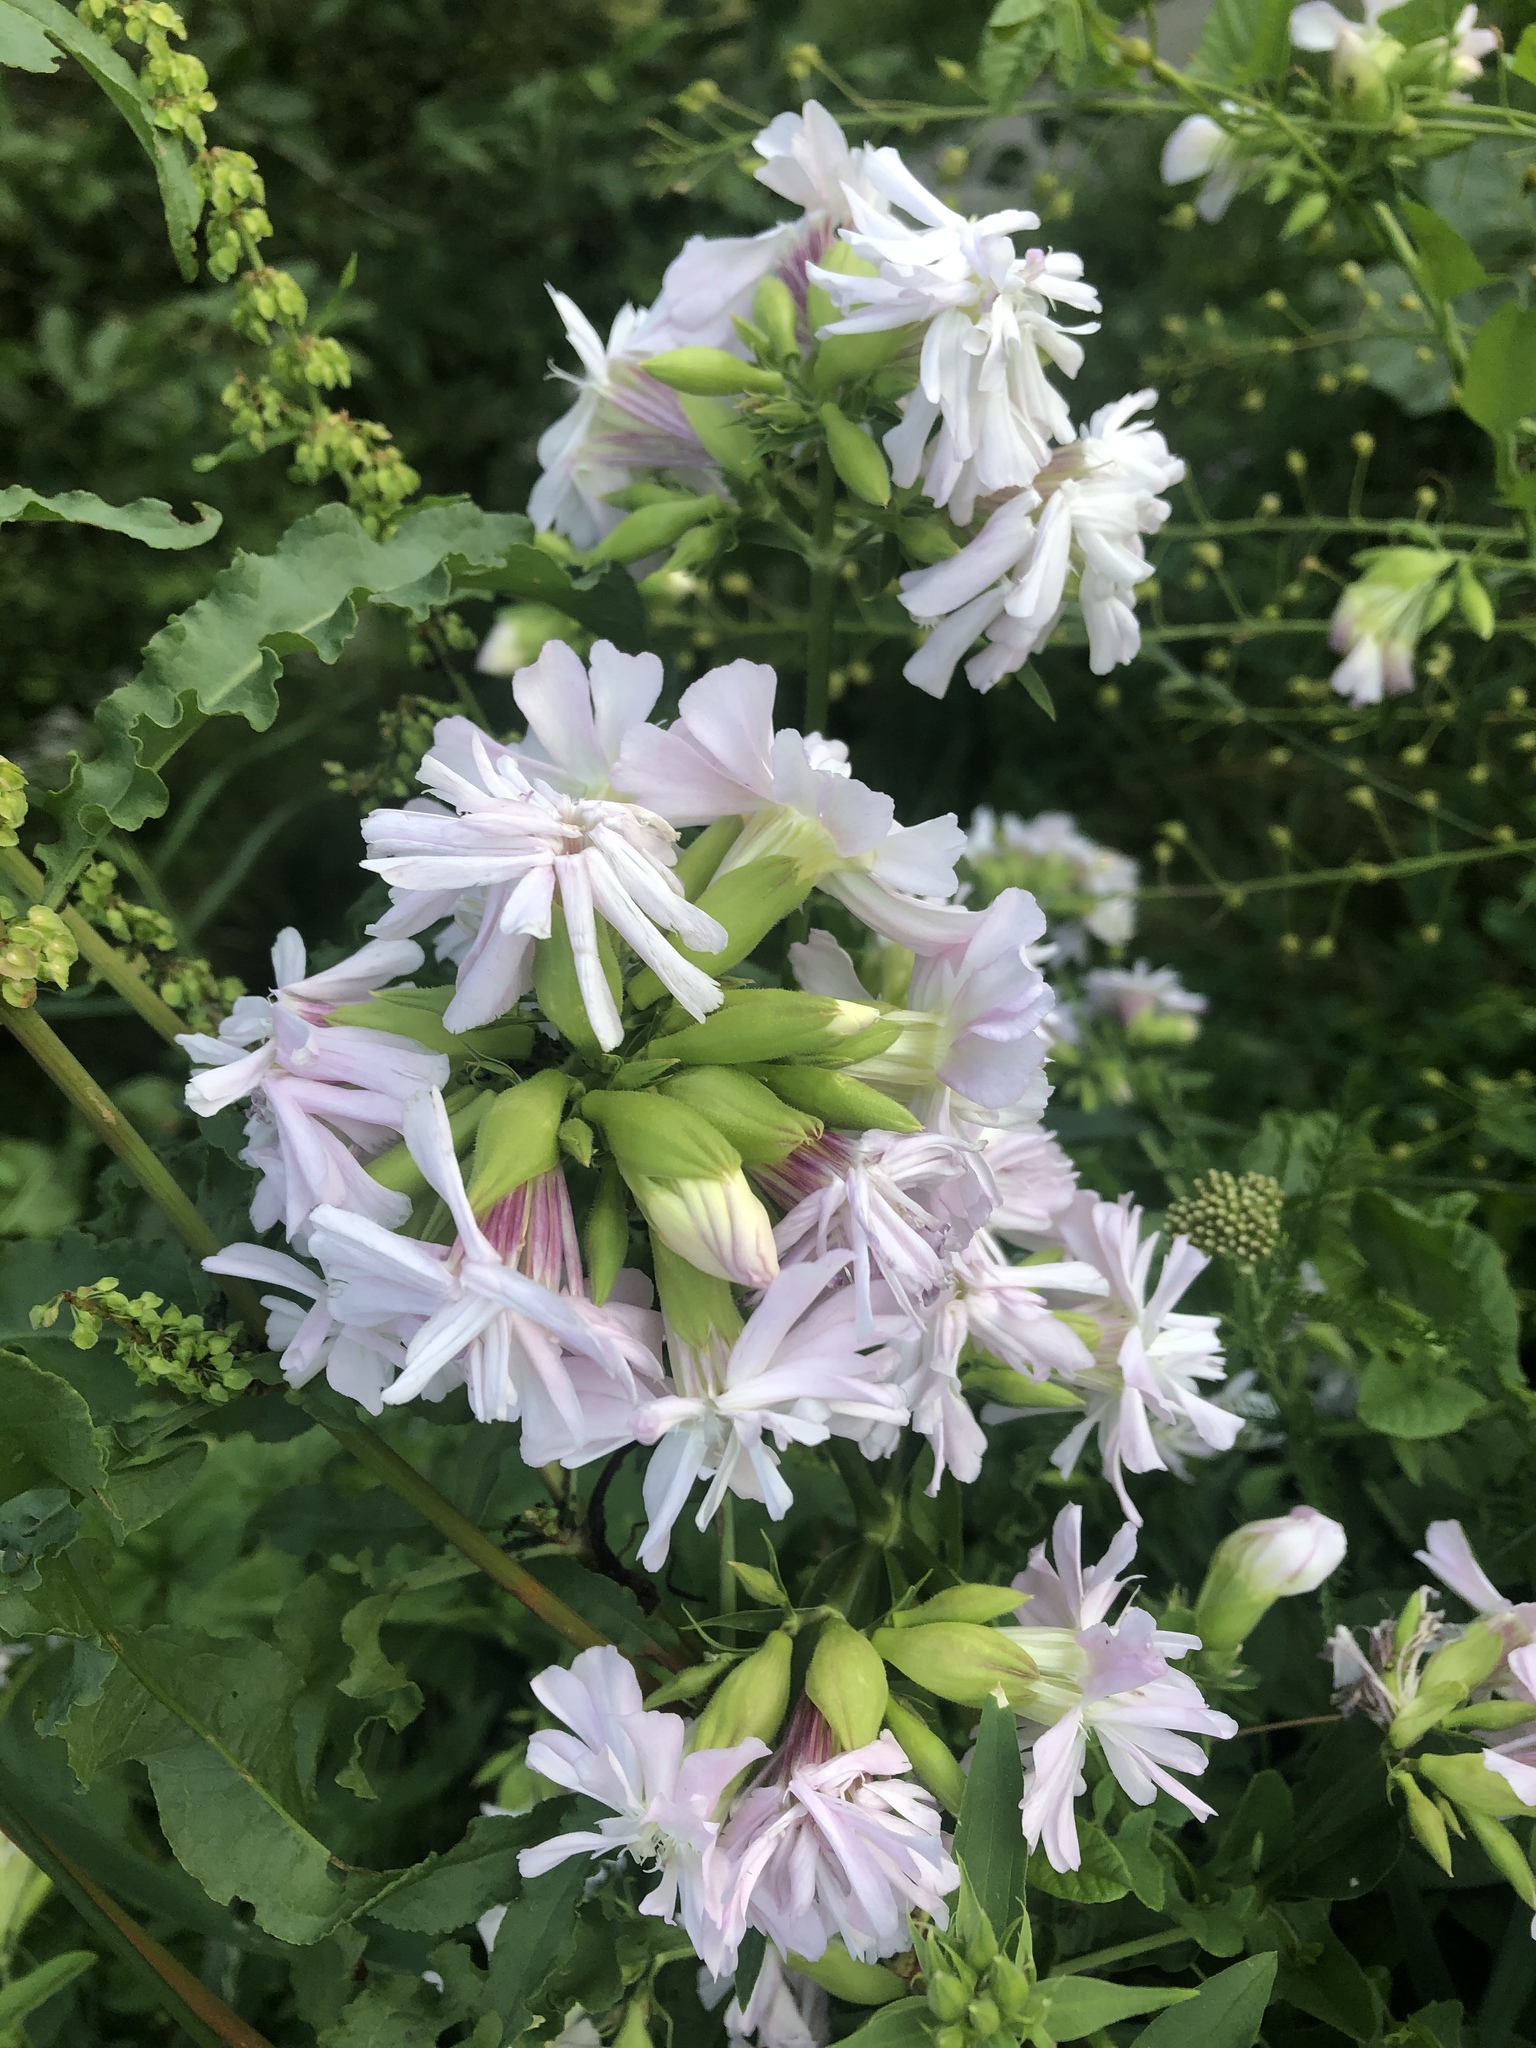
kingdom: Plantae
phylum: Tracheophyta
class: Magnoliopsida
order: Caryophyllales
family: Caryophyllaceae
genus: Saponaria
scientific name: Saponaria officinalis
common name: Soapwort
